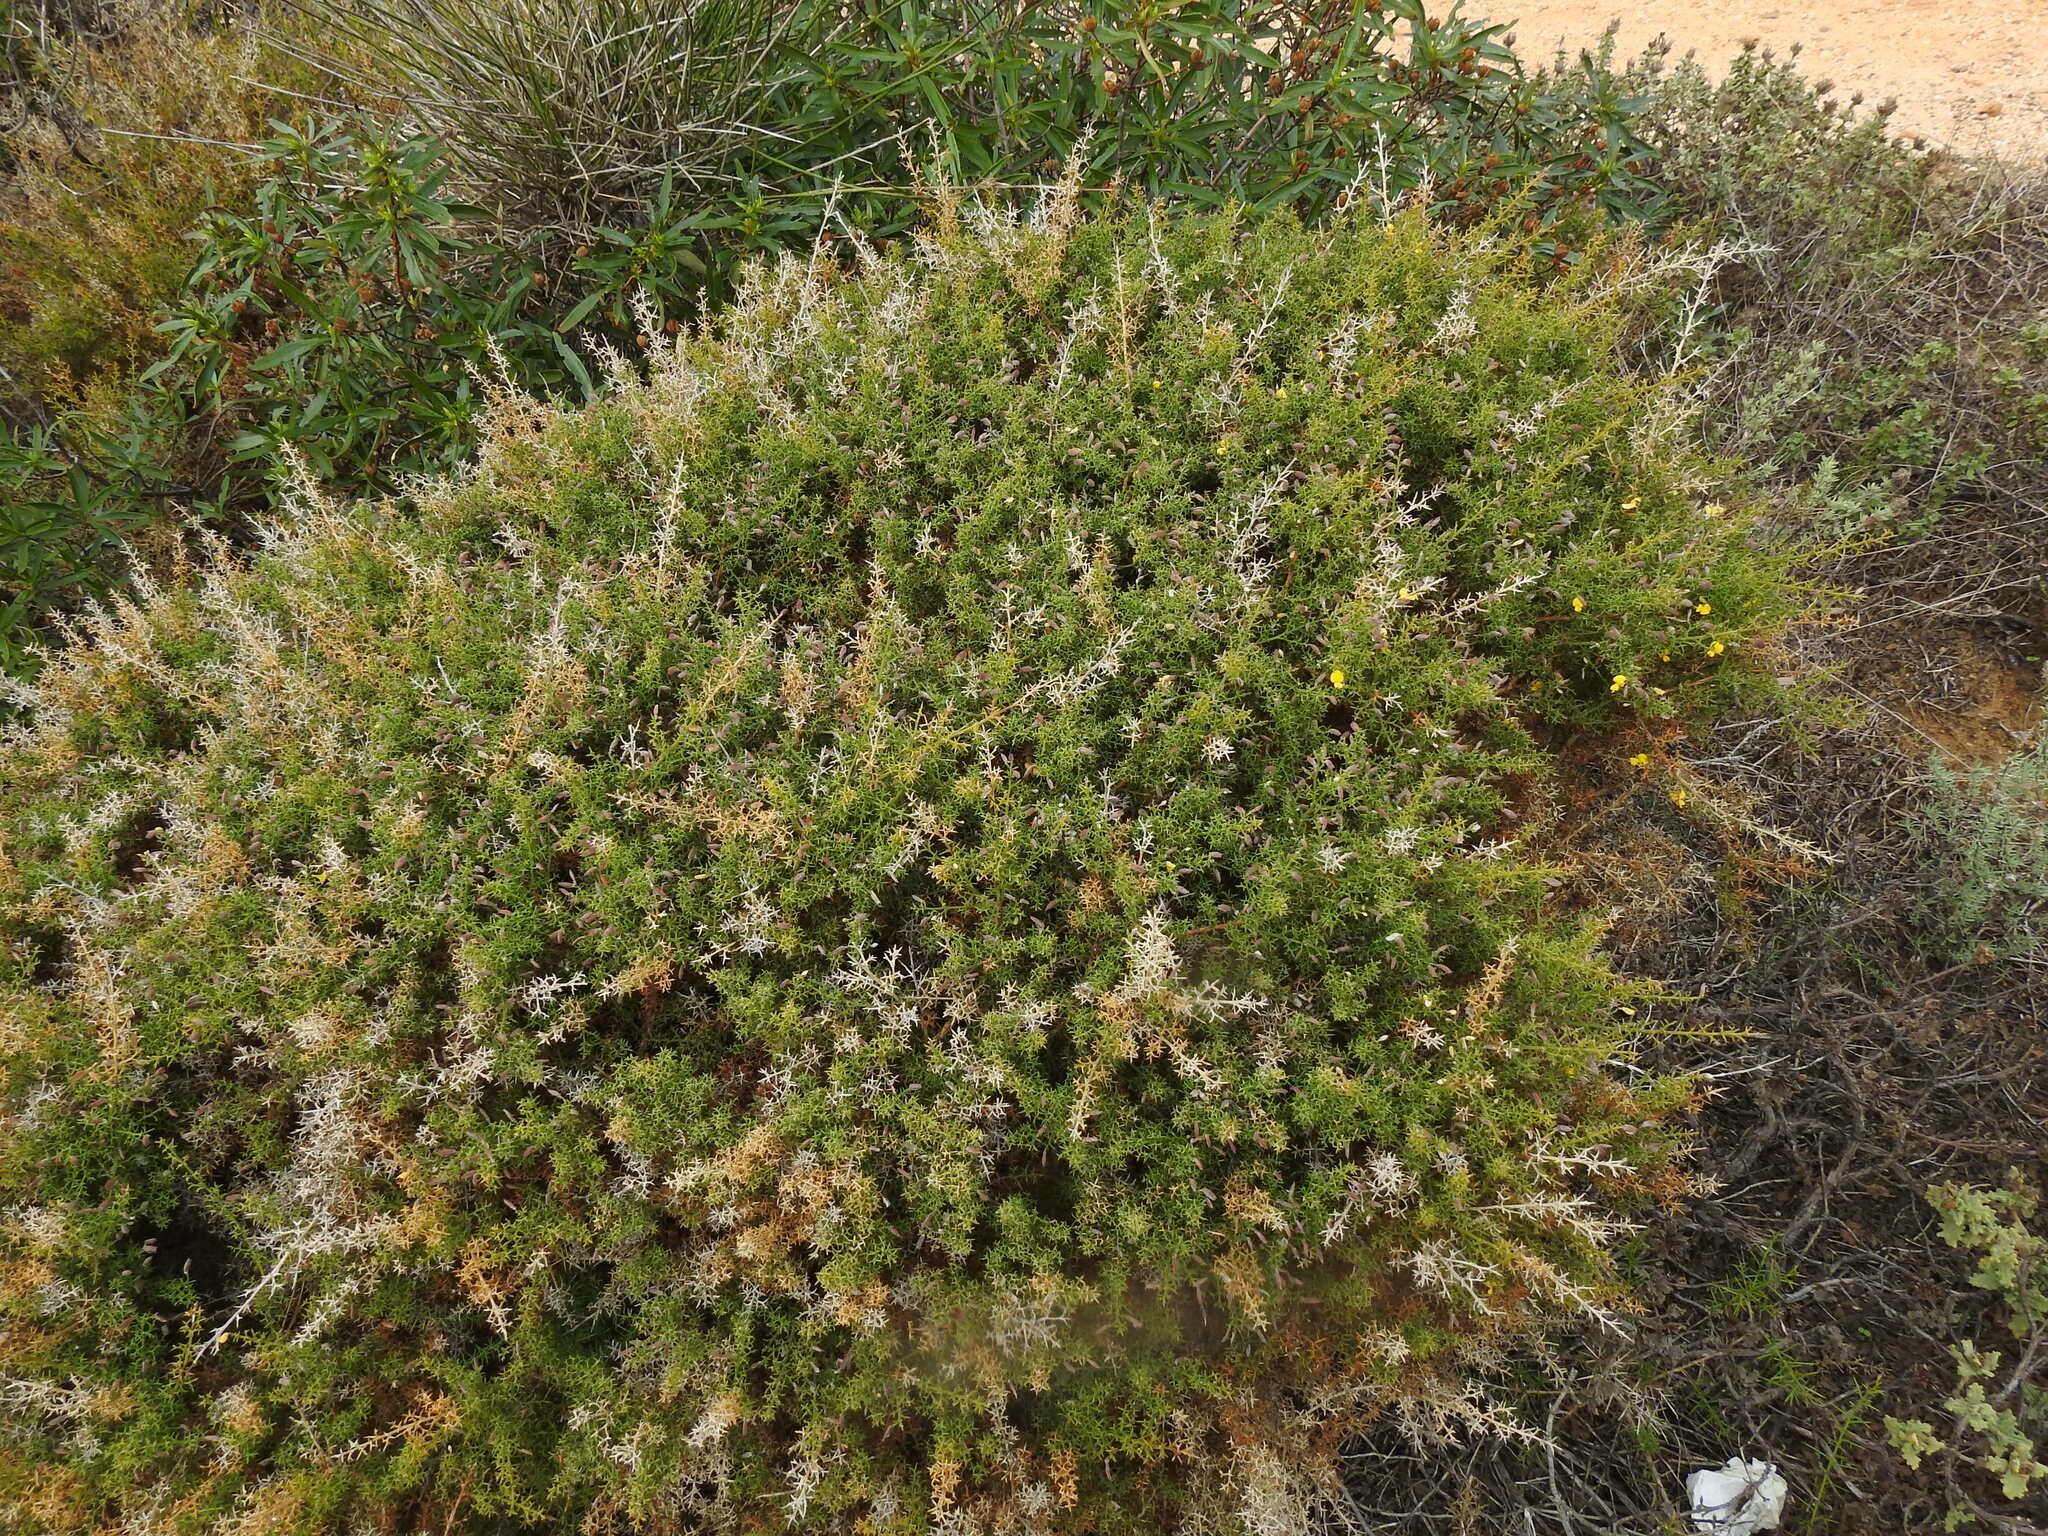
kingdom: Plantae
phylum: Tracheophyta
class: Magnoliopsida
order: Fabales
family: Fabaceae
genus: Stauracanthus
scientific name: Stauracanthus boivinii
